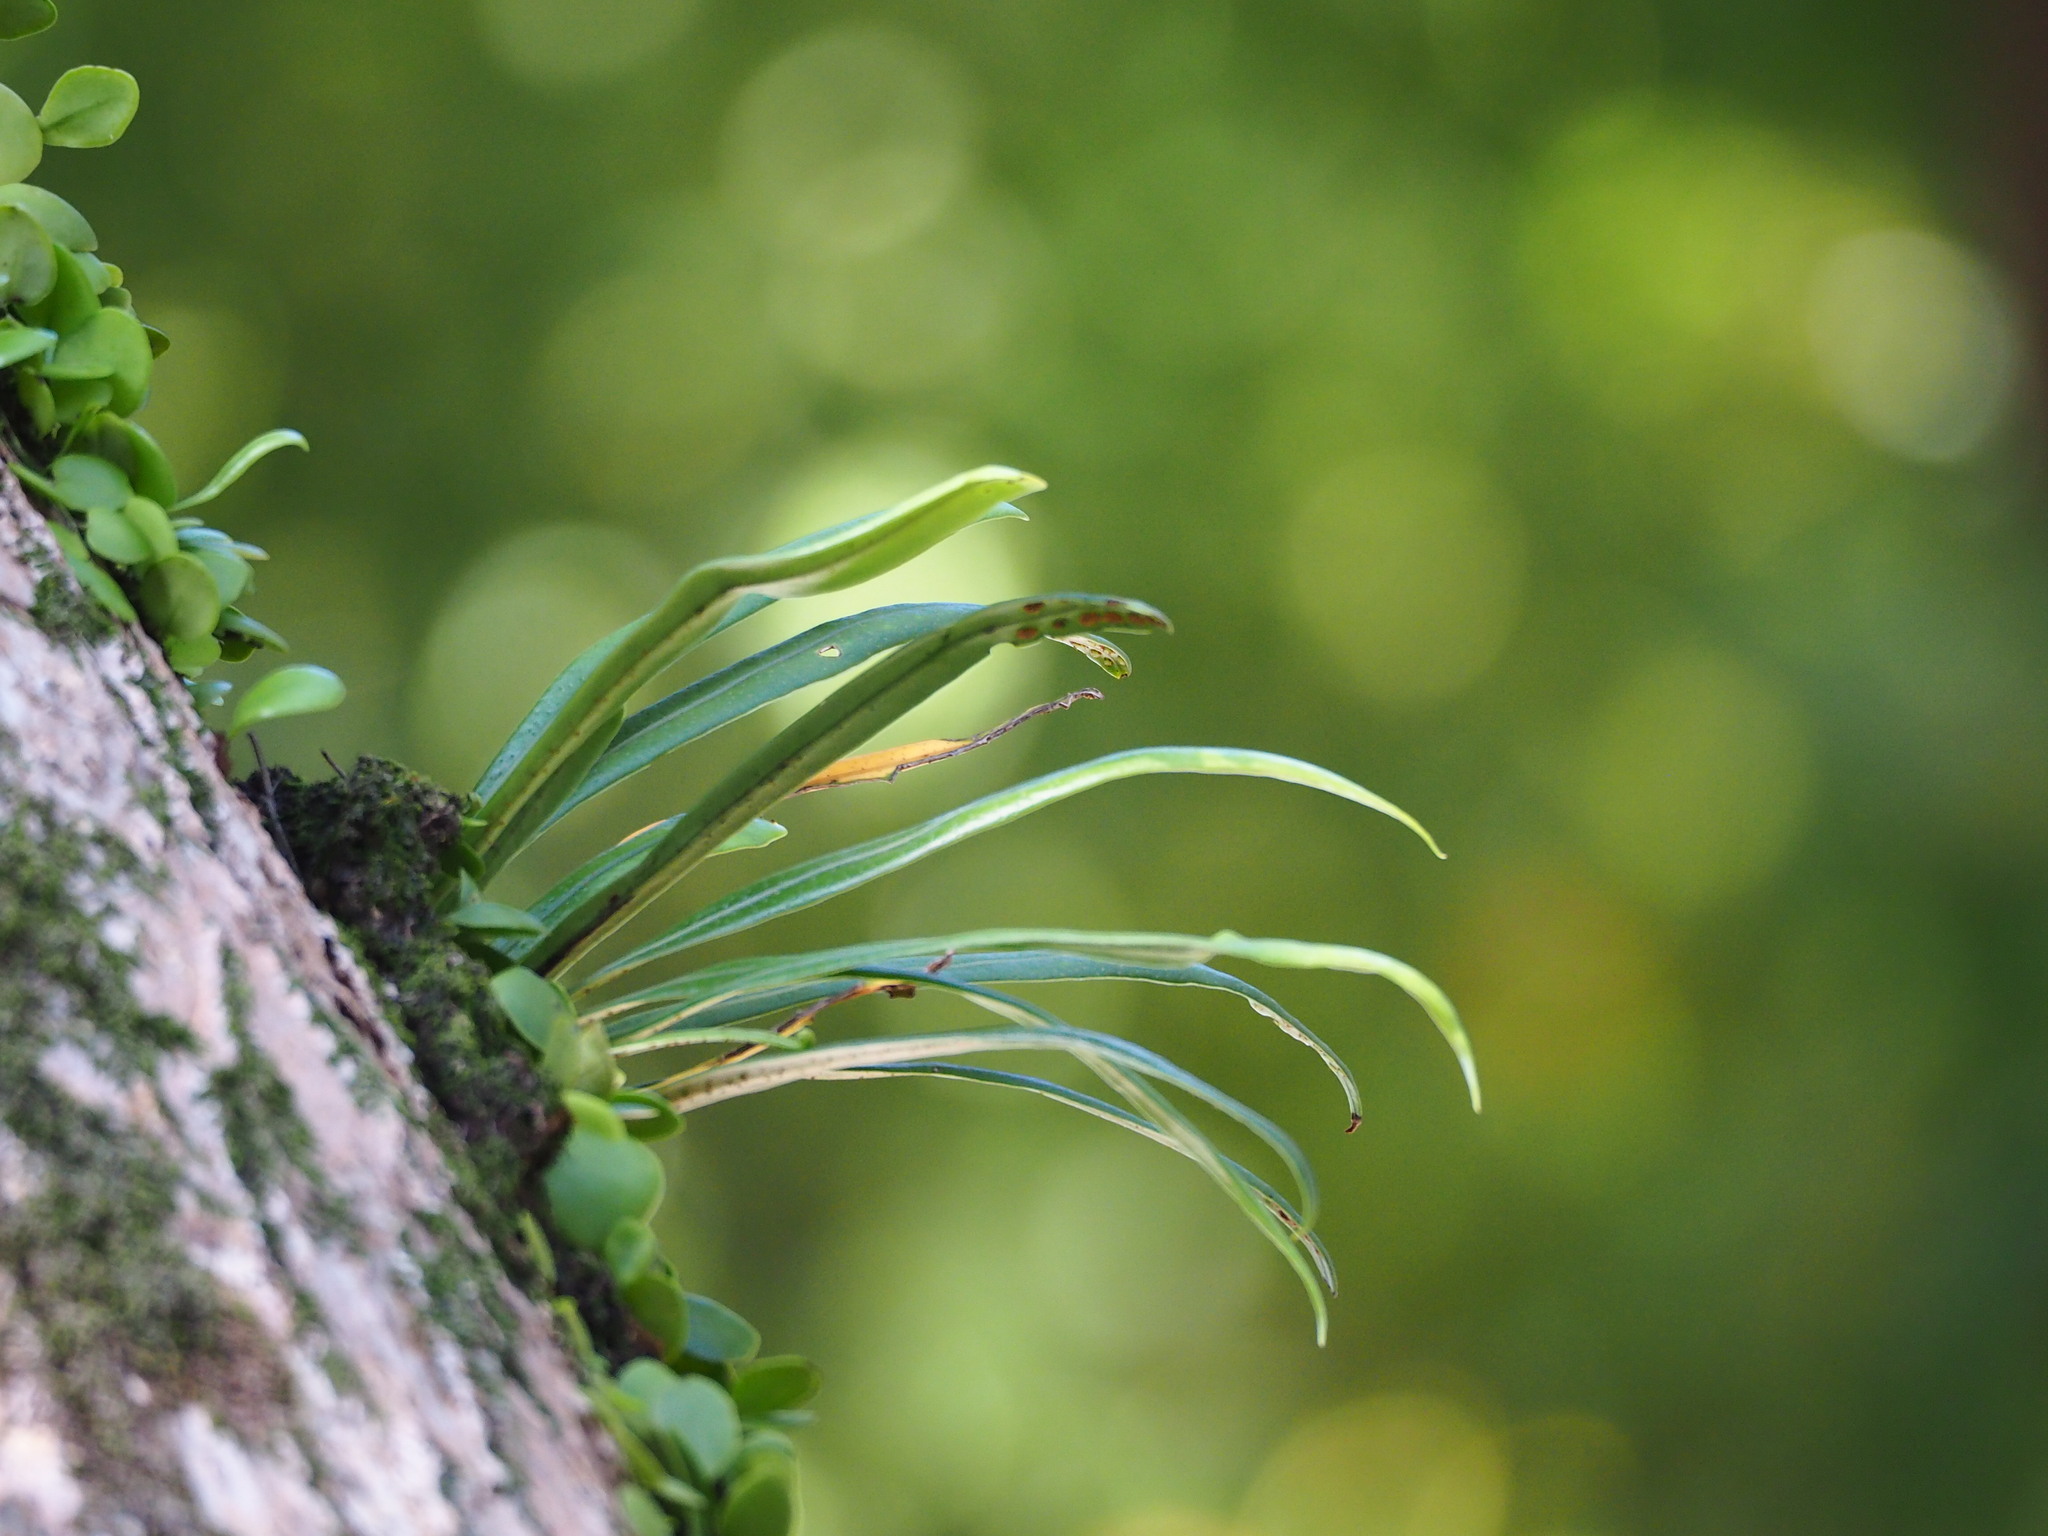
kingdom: Plantae
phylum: Tracheophyta
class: Polypodiopsida
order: Polypodiales
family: Polypodiaceae
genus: Lepisorus
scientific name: Lepisorus thunbergianus
